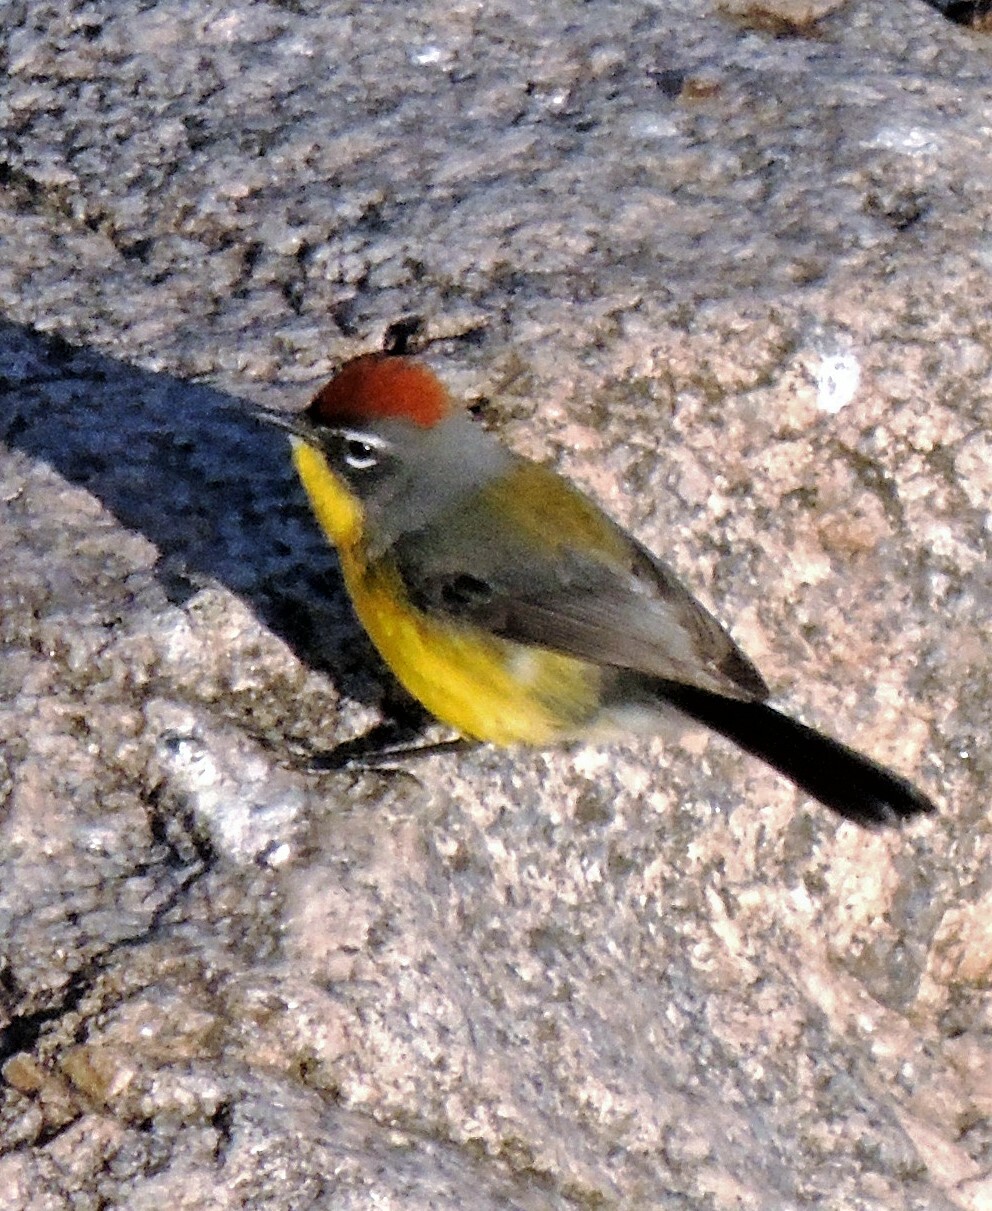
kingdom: Animalia
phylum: Chordata
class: Aves
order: Passeriformes
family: Parulidae
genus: Myioborus
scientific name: Myioborus brunniceps
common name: Brown-capped whitestart
